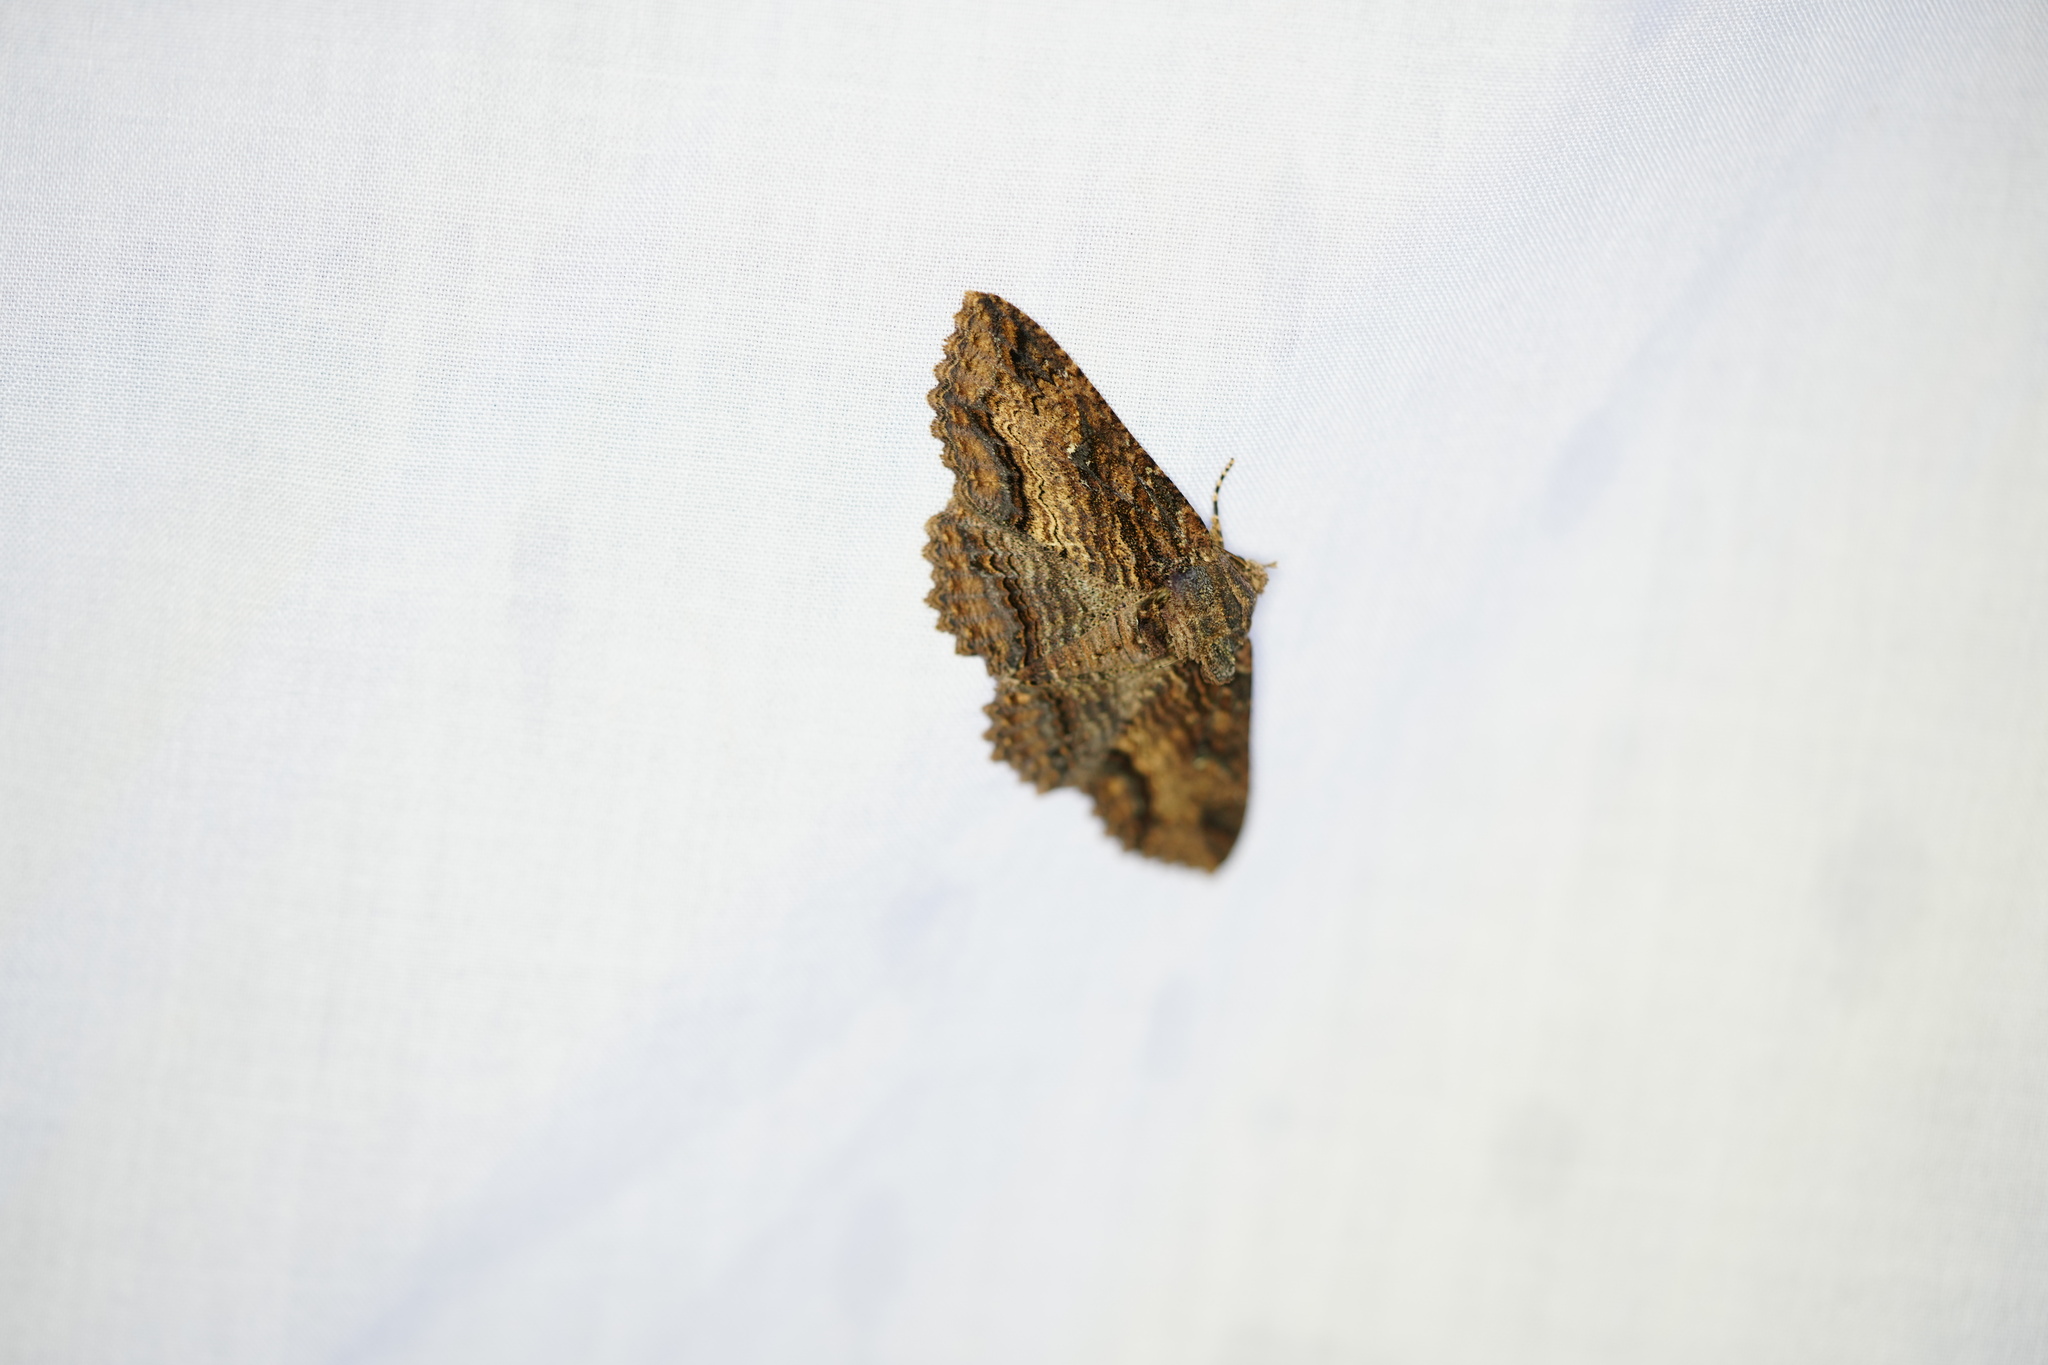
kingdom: Animalia
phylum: Arthropoda
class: Insecta
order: Lepidoptera
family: Erebidae
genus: Zale
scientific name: Zale lunata
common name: Lunate zale moth
